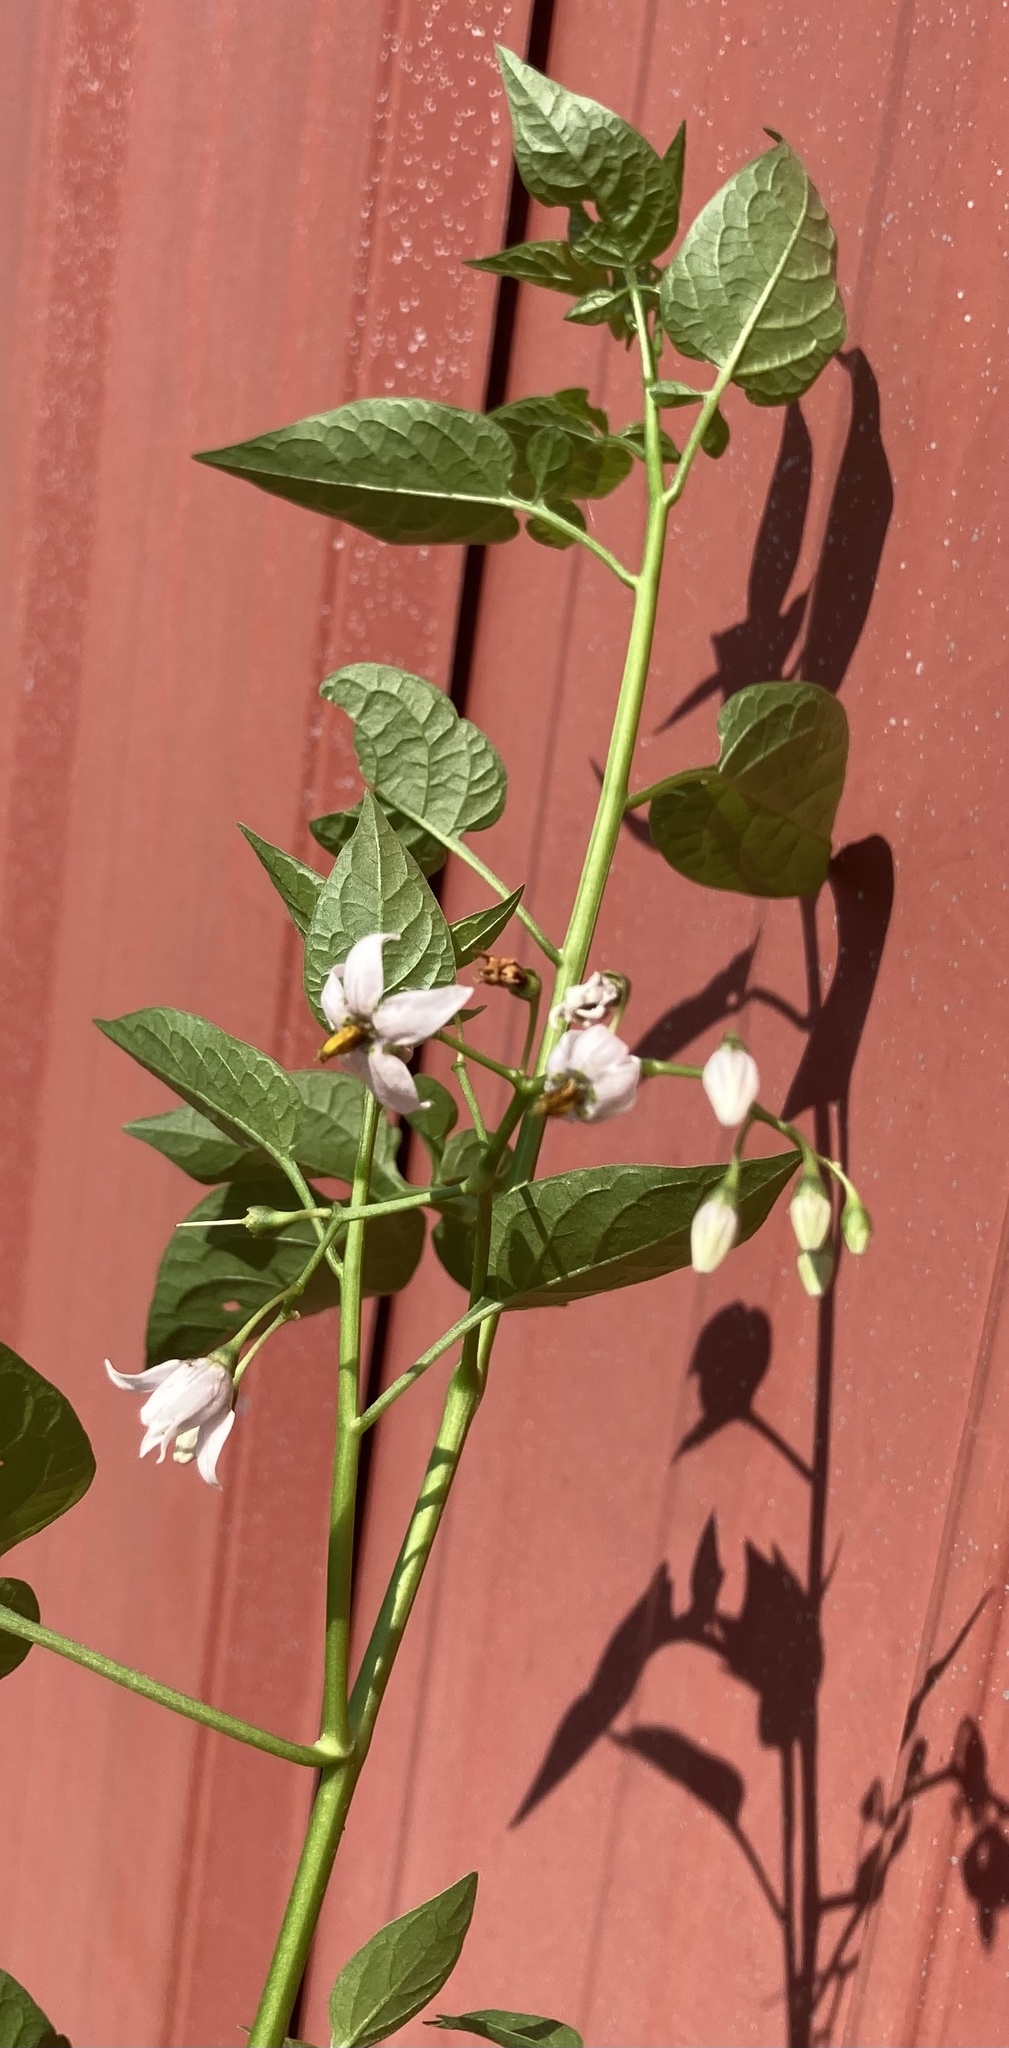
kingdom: Plantae
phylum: Tracheophyta
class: Magnoliopsida
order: Solanales
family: Solanaceae
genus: Solanum
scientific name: Solanum dulcamara
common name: Climbing nightshade
